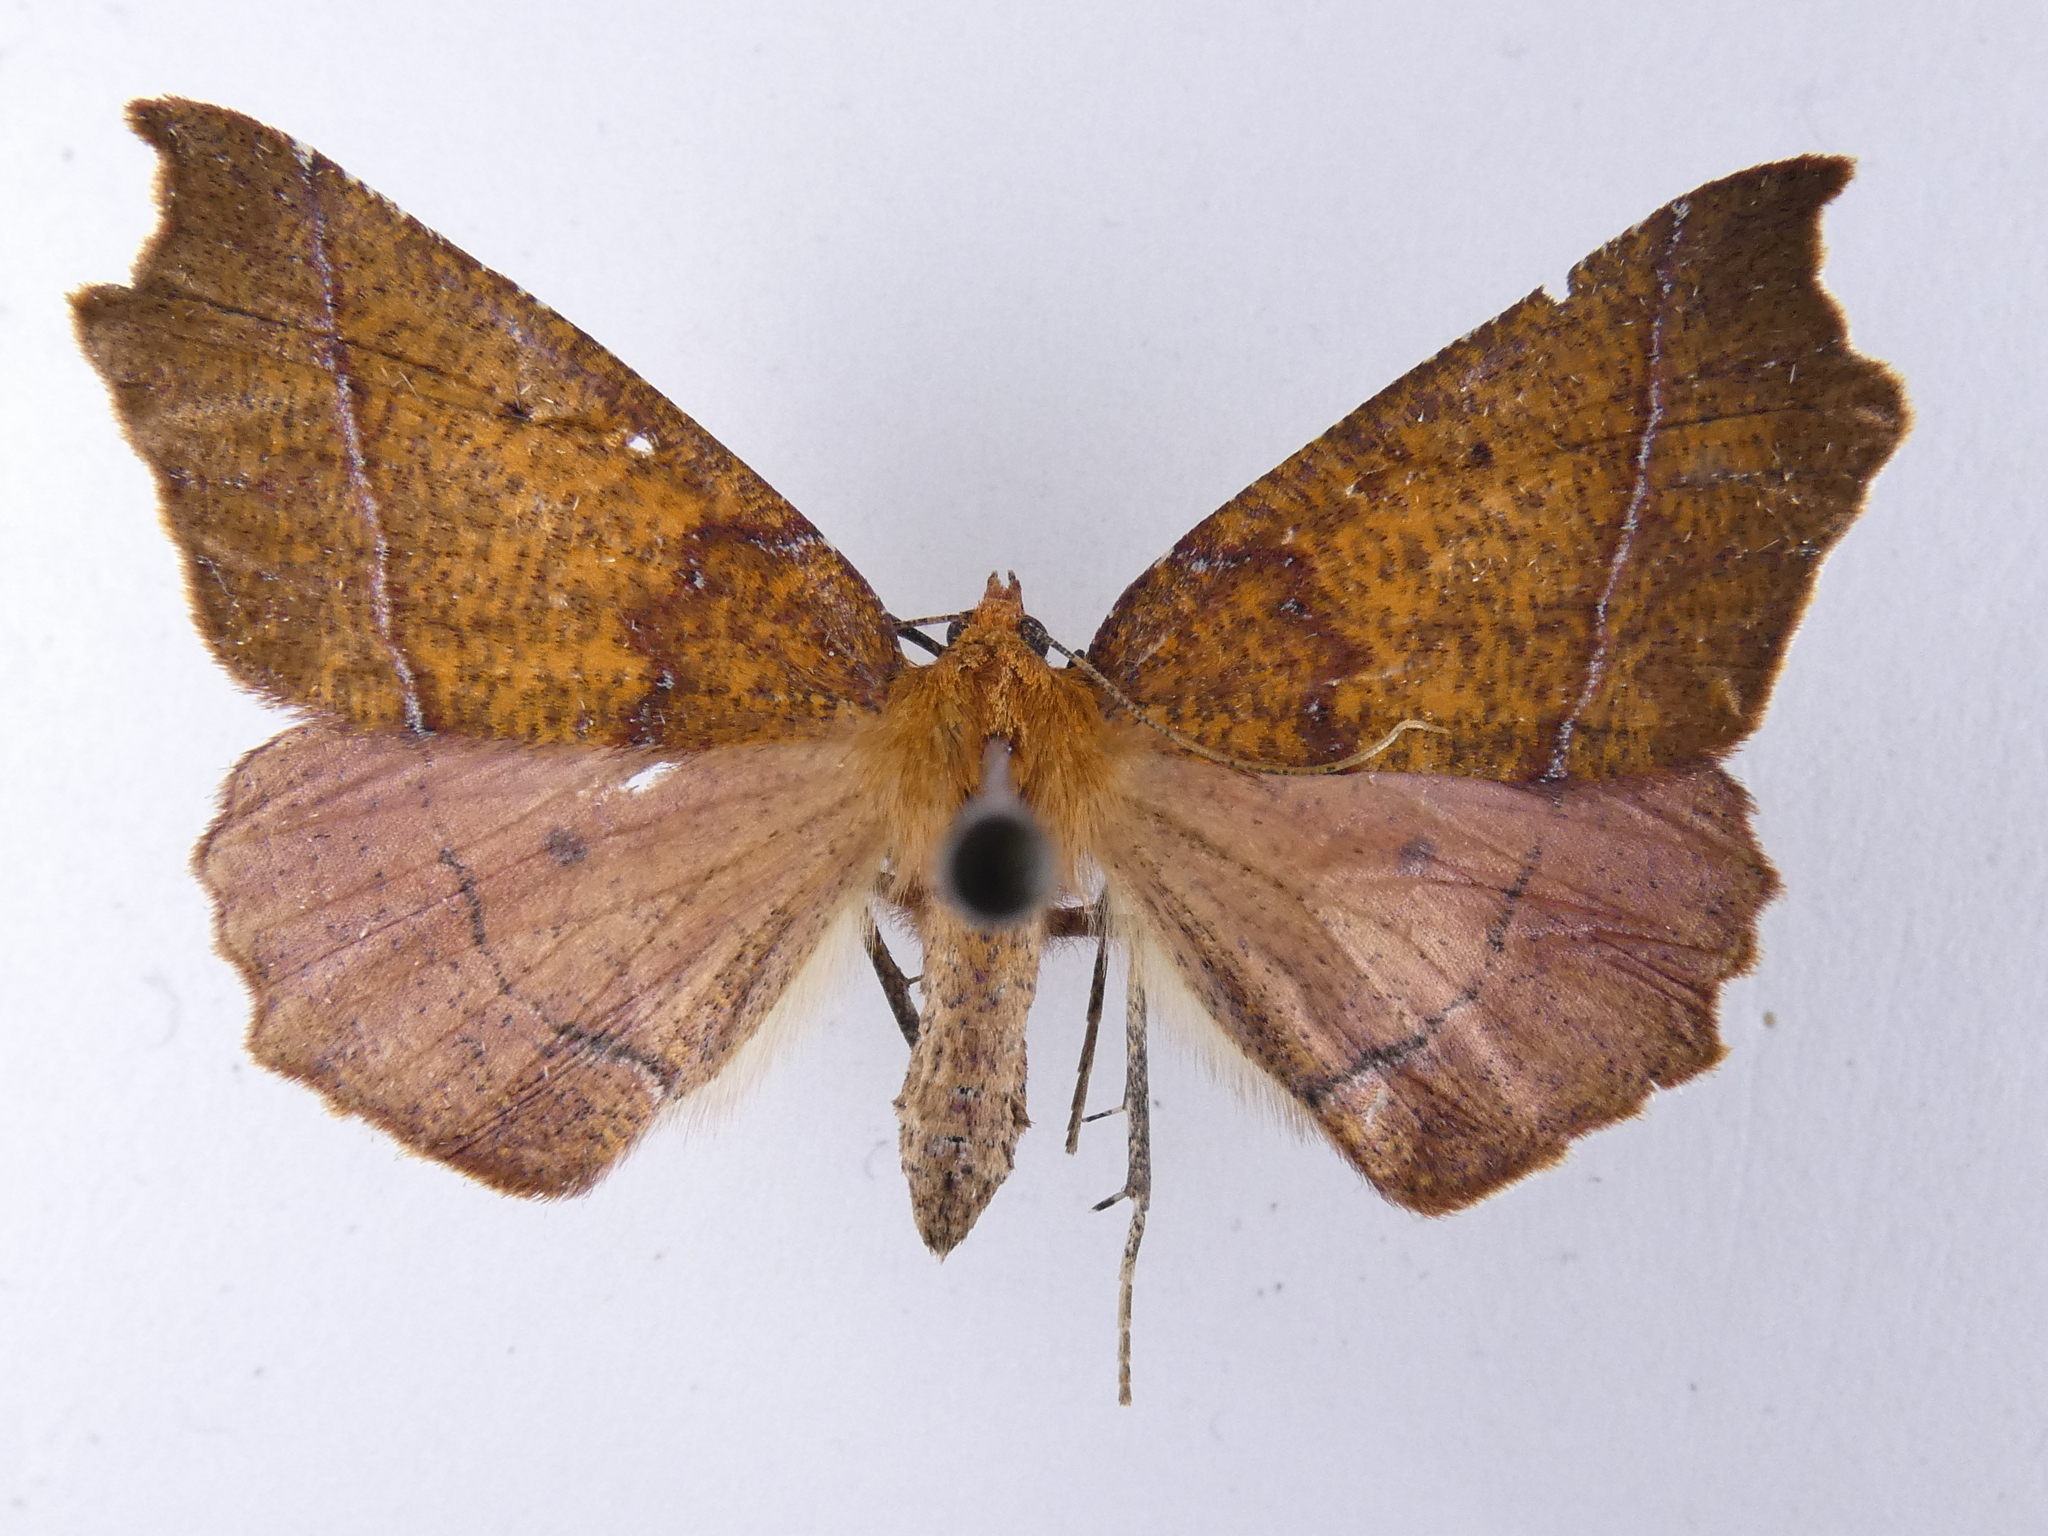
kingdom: Animalia
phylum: Arthropoda
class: Insecta
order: Lepidoptera
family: Geometridae
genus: Ischalis
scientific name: Ischalis nelsonaria
